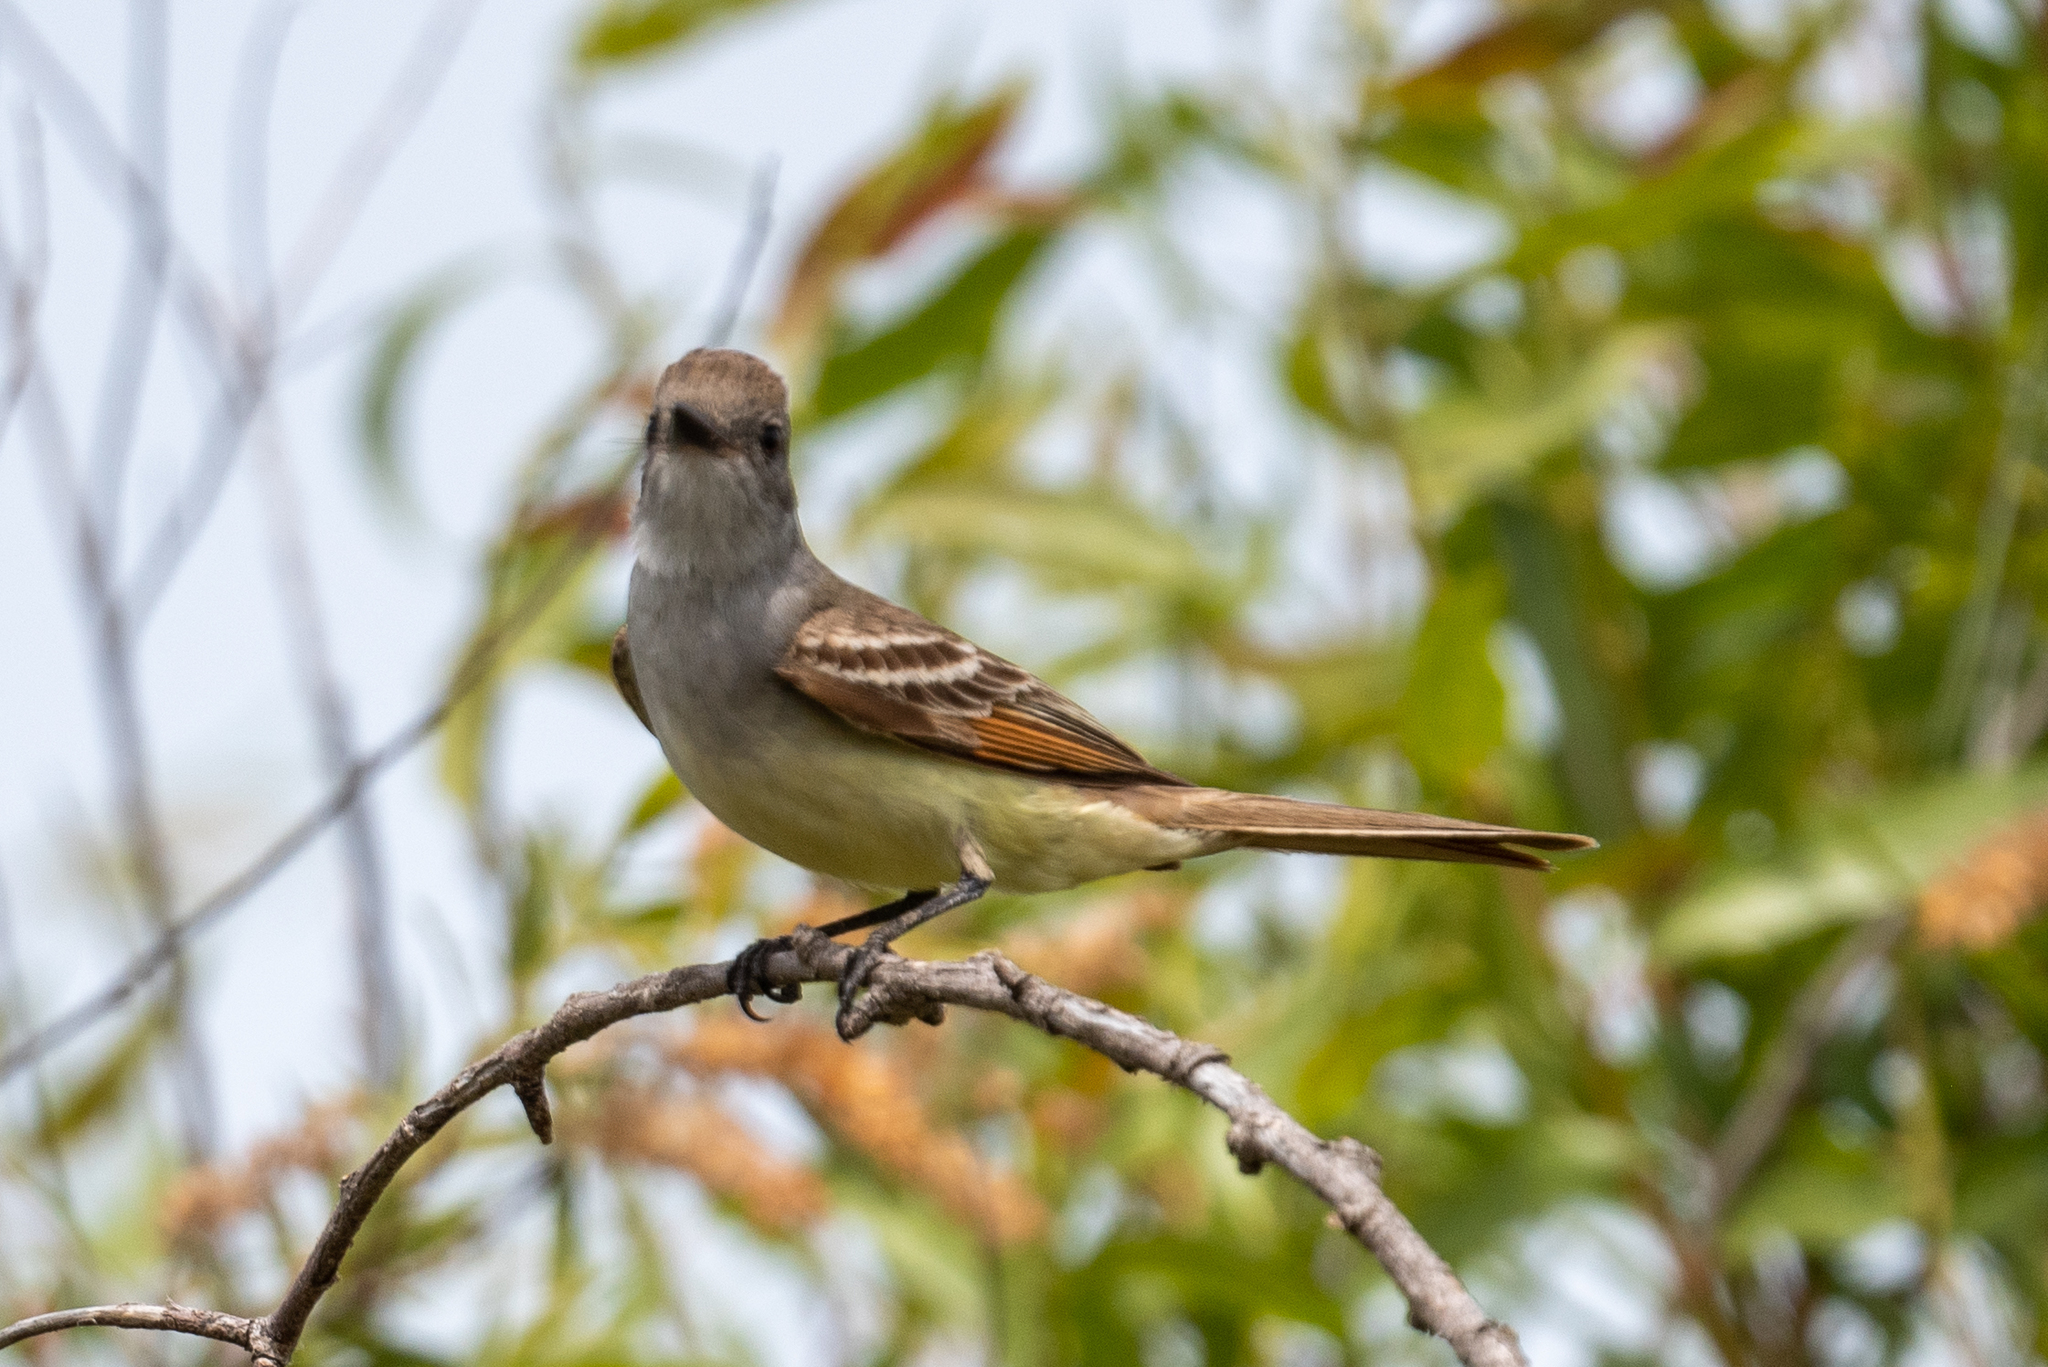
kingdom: Animalia
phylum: Chordata
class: Aves
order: Passeriformes
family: Tyrannidae
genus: Myiarchus
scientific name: Myiarchus cinerascens
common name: Ash-throated flycatcher
